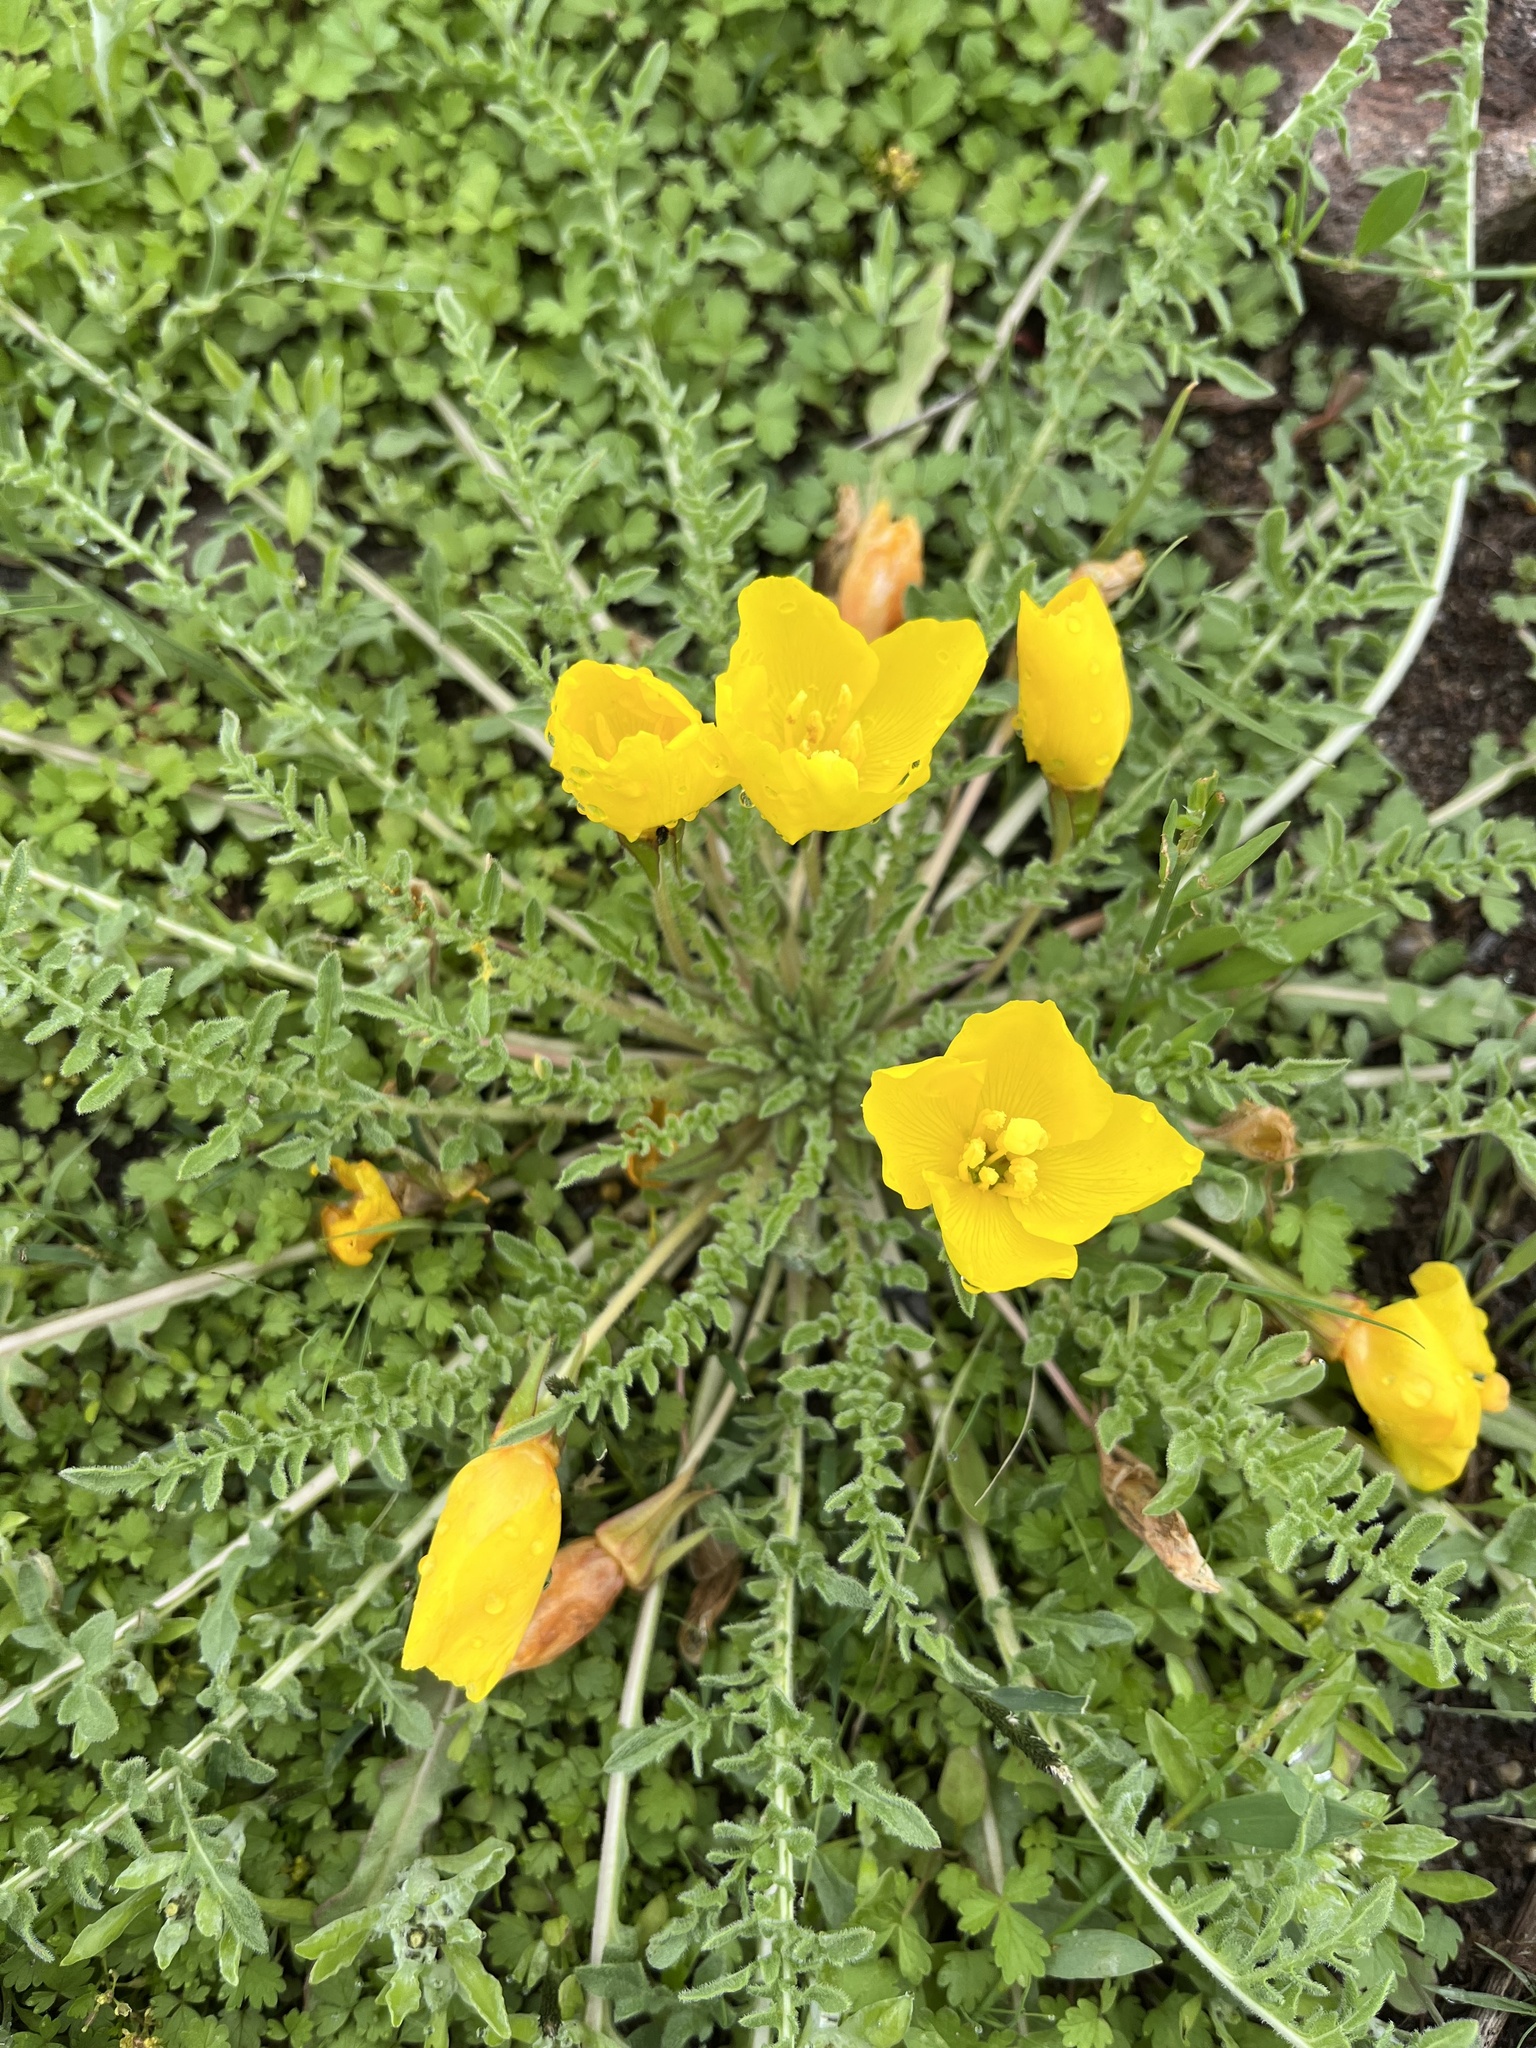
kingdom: Plantae
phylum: Tracheophyta
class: Magnoliopsida
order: Myrtales
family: Onagraceae
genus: Taraxia
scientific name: Taraxia tanacetifolia
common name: Tansyleaf evening primrose
